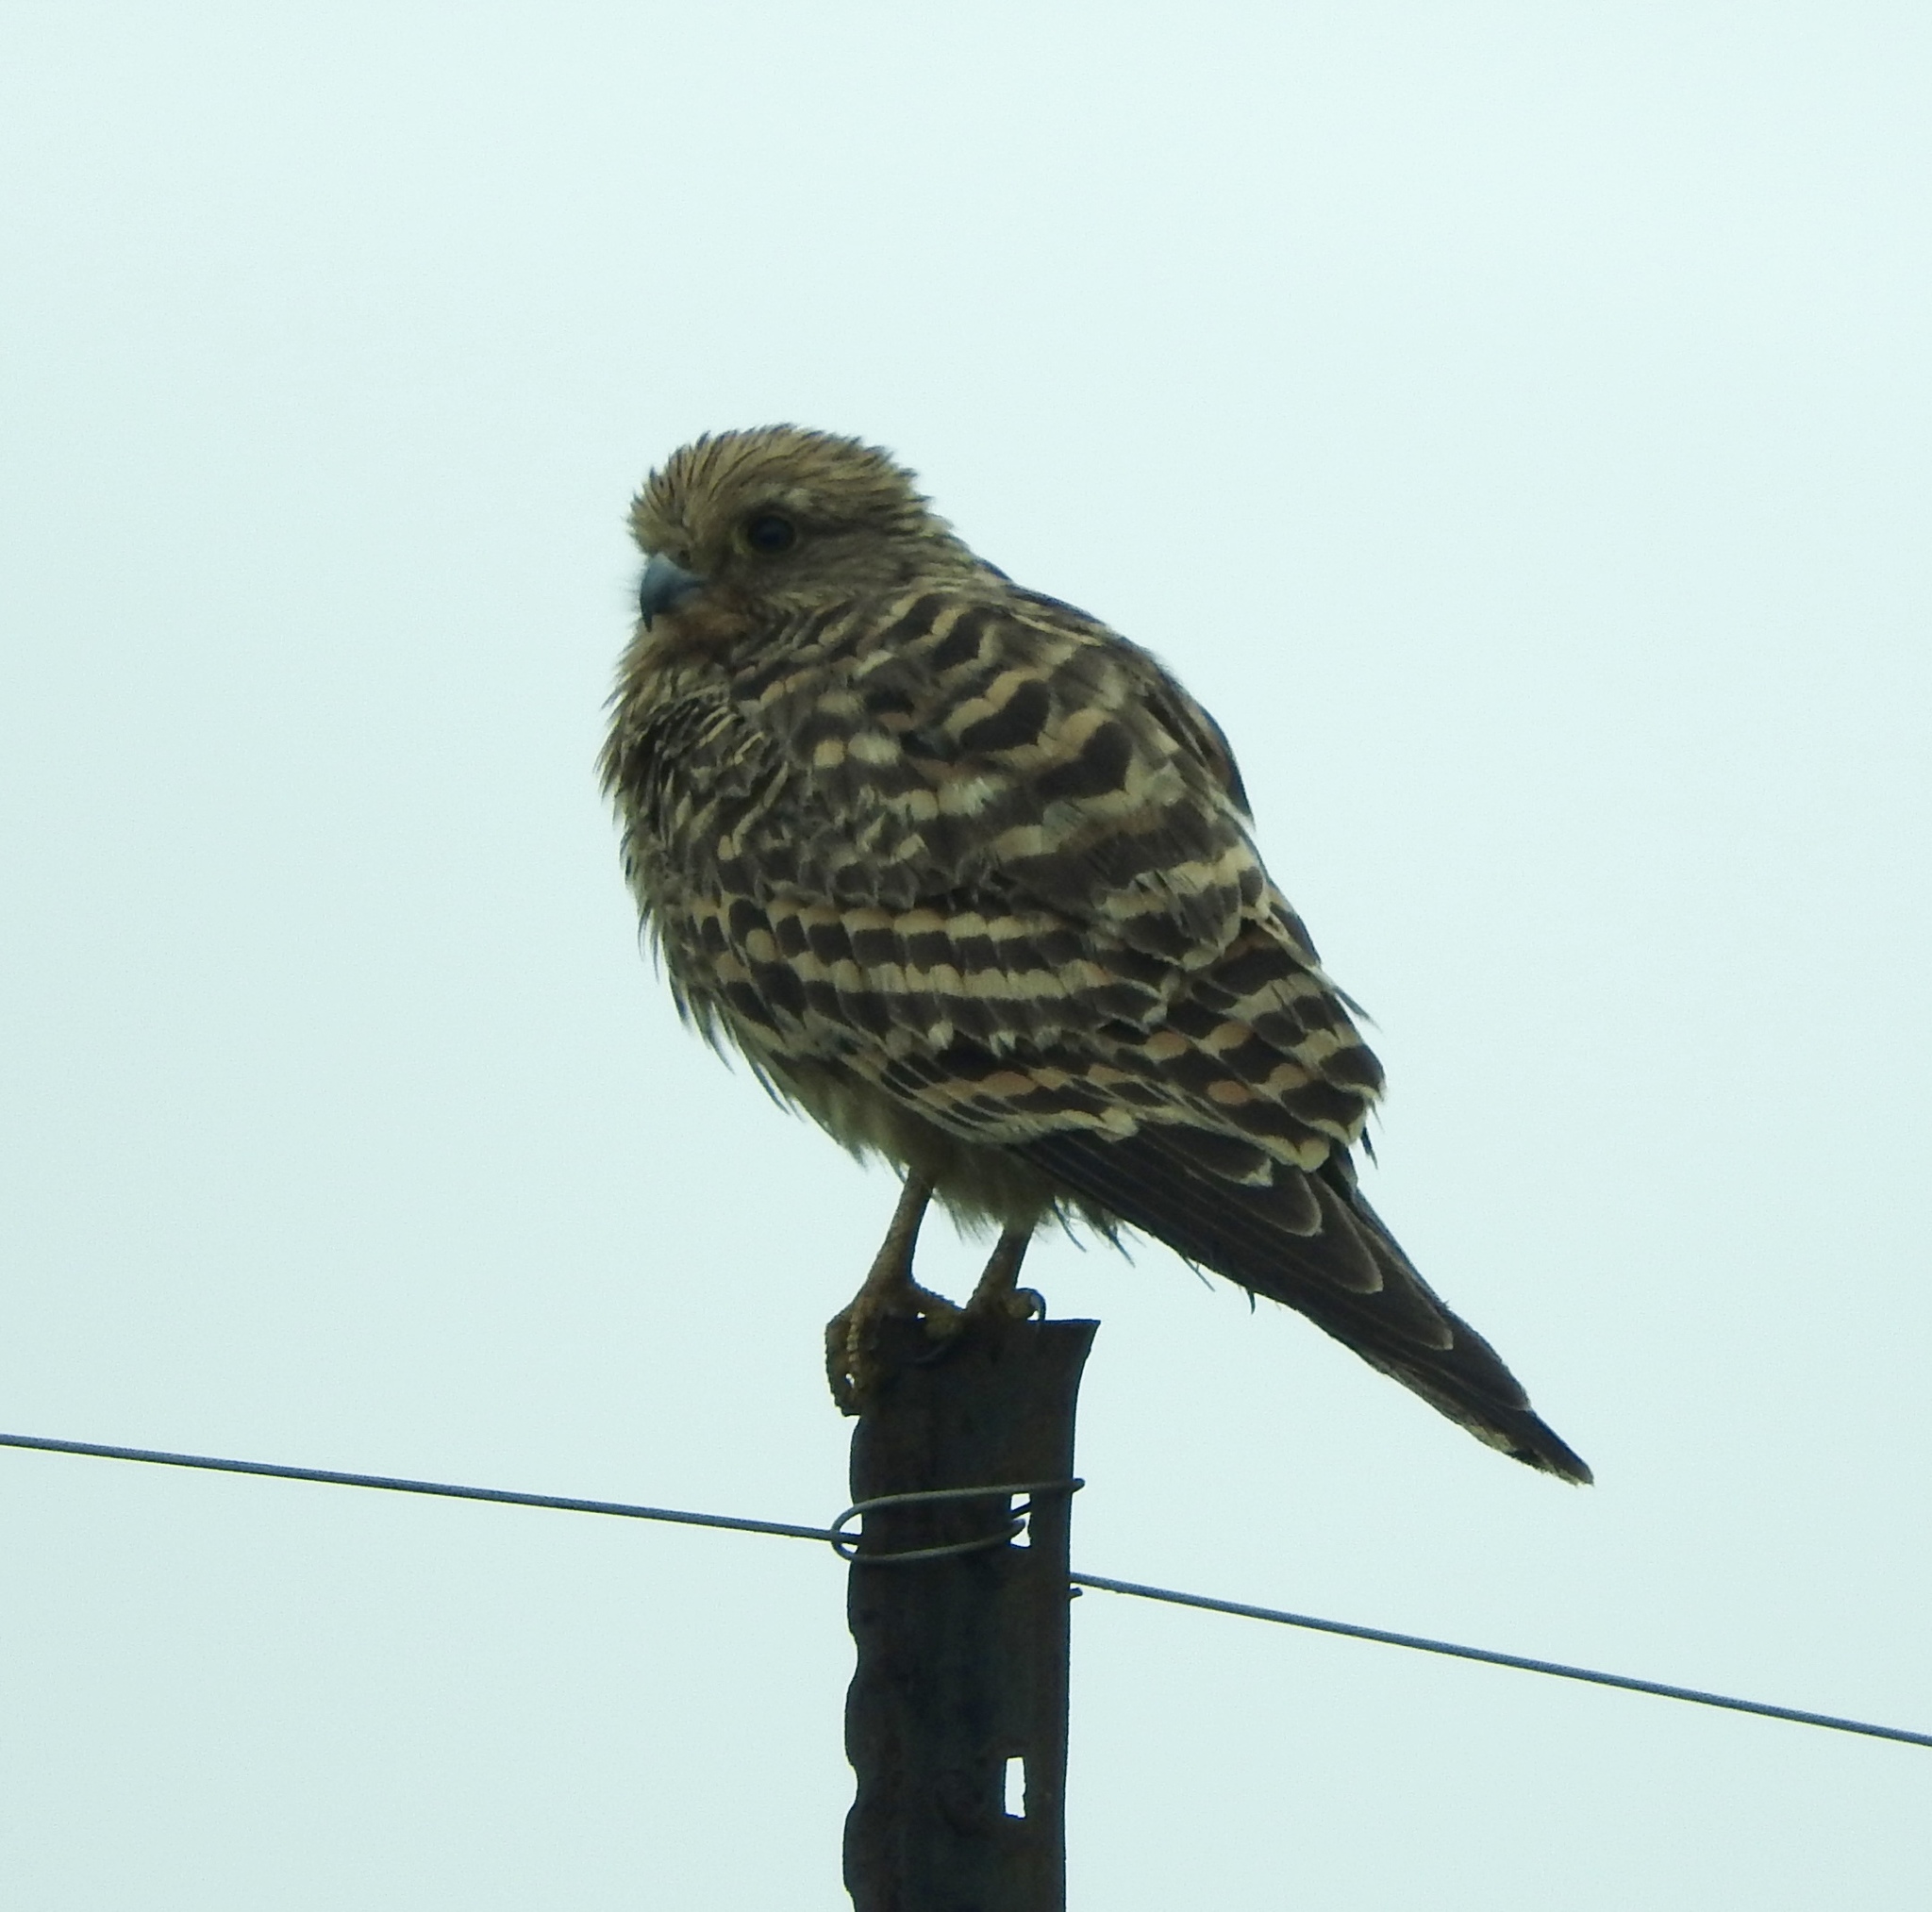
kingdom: Animalia
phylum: Chordata
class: Aves
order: Falconiformes
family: Falconidae
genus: Falco
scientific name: Falco rupicoloides
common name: Greater kestrel
